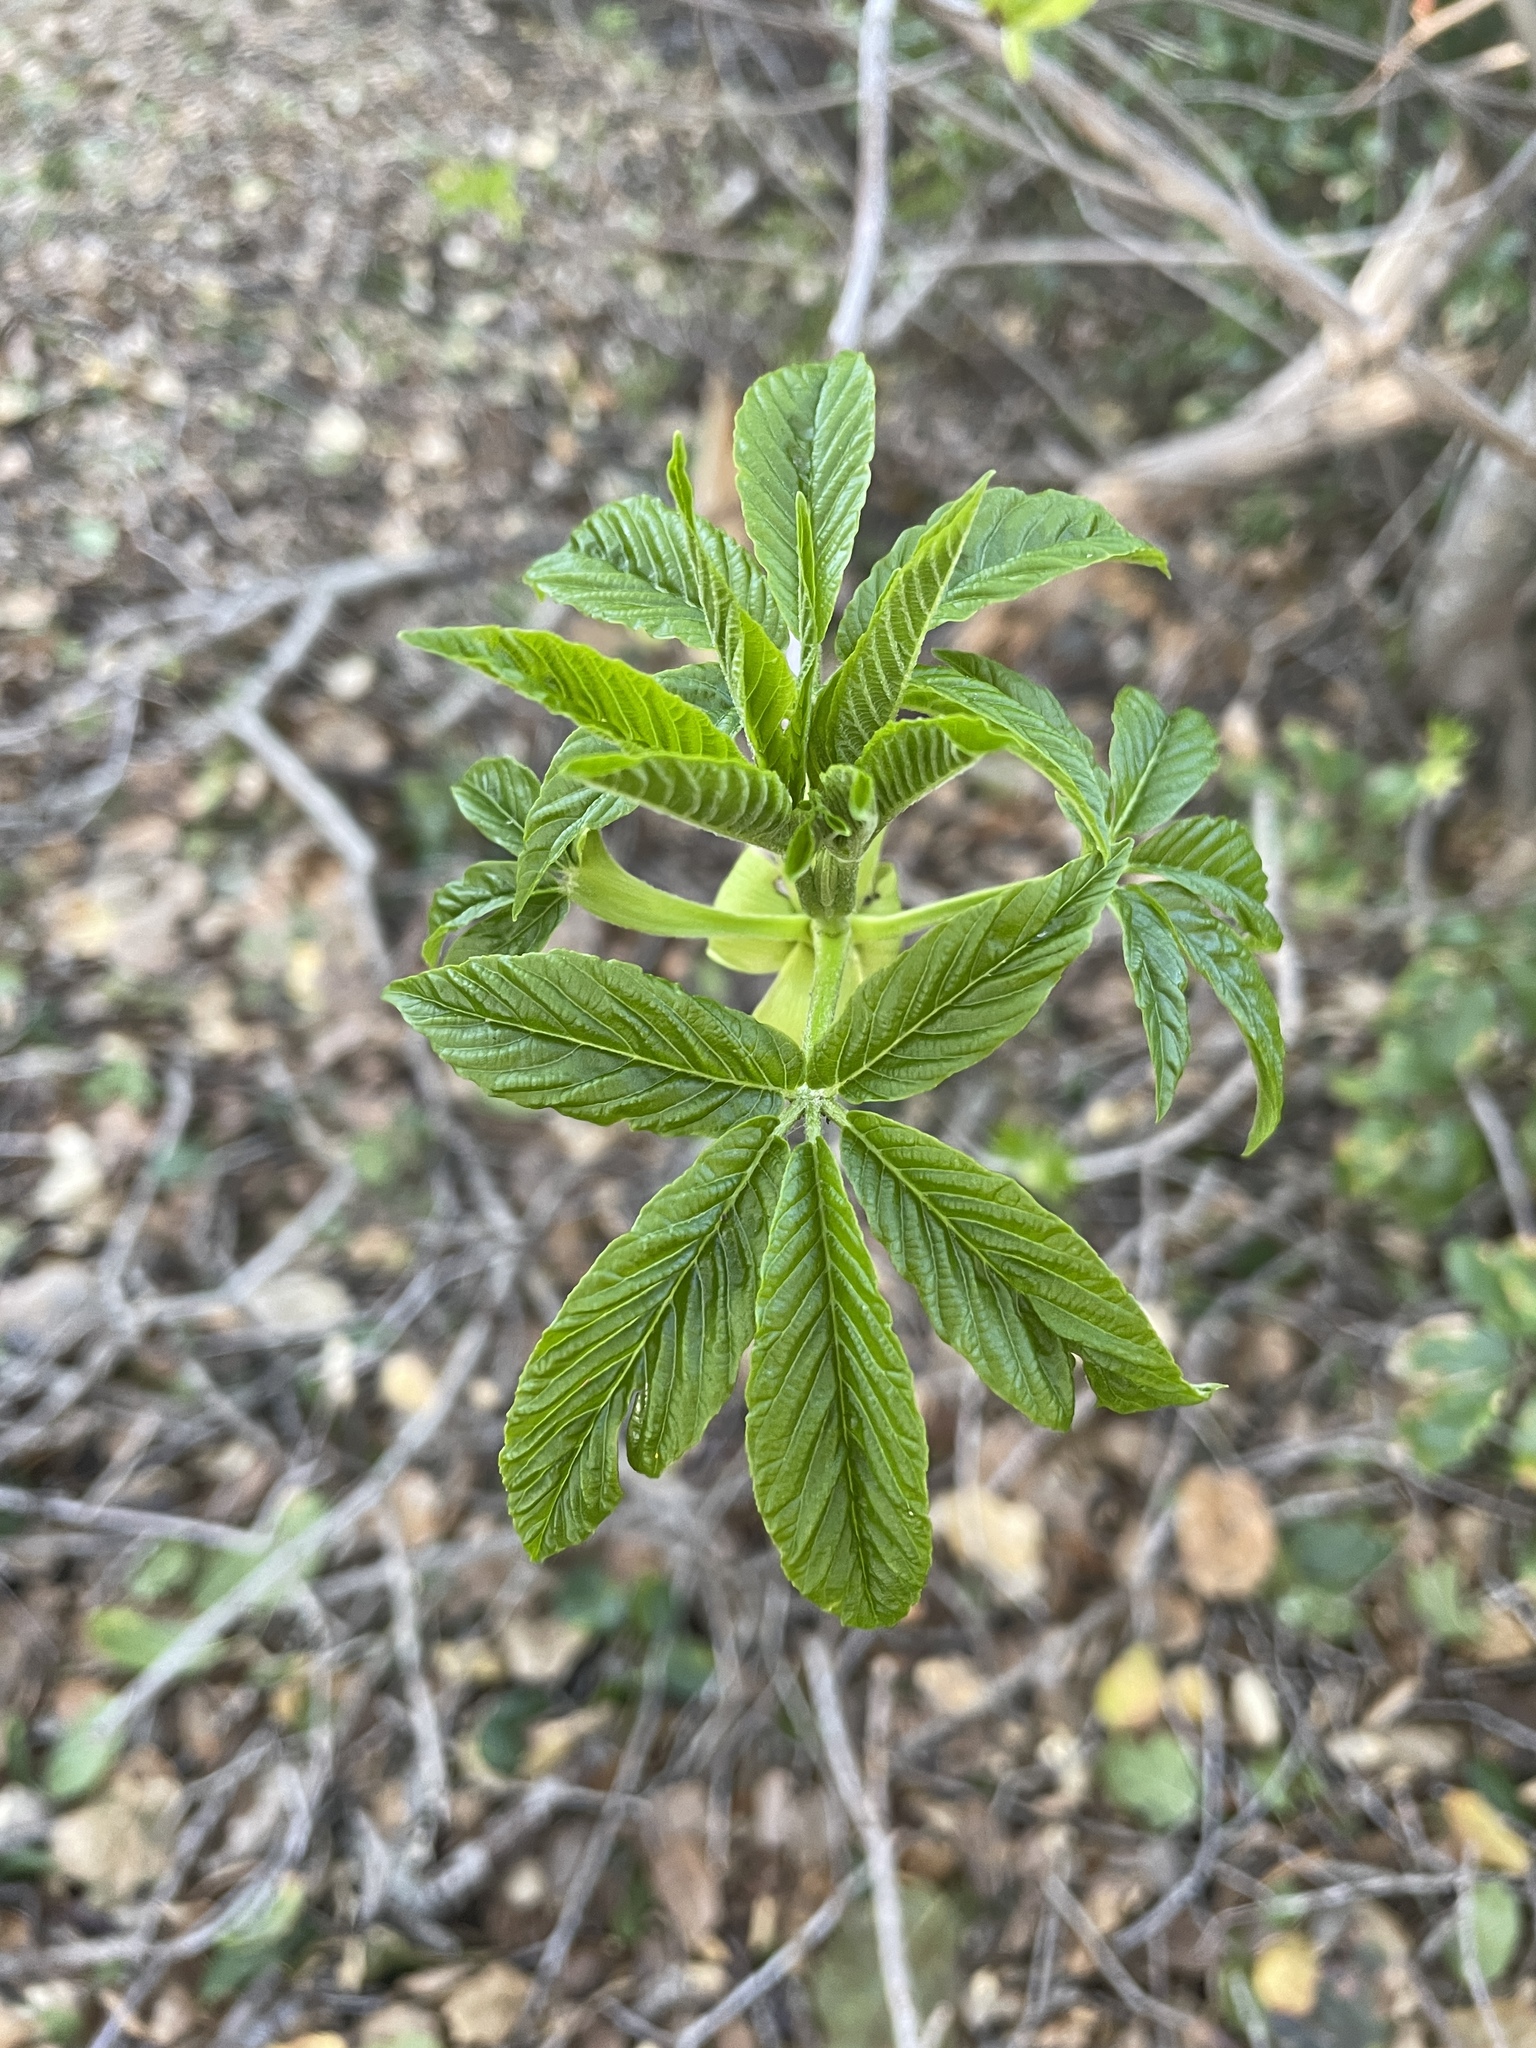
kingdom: Plantae
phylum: Tracheophyta
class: Magnoliopsida
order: Sapindales
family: Sapindaceae
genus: Aesculus
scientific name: Aesculus californica
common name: California buckeye
